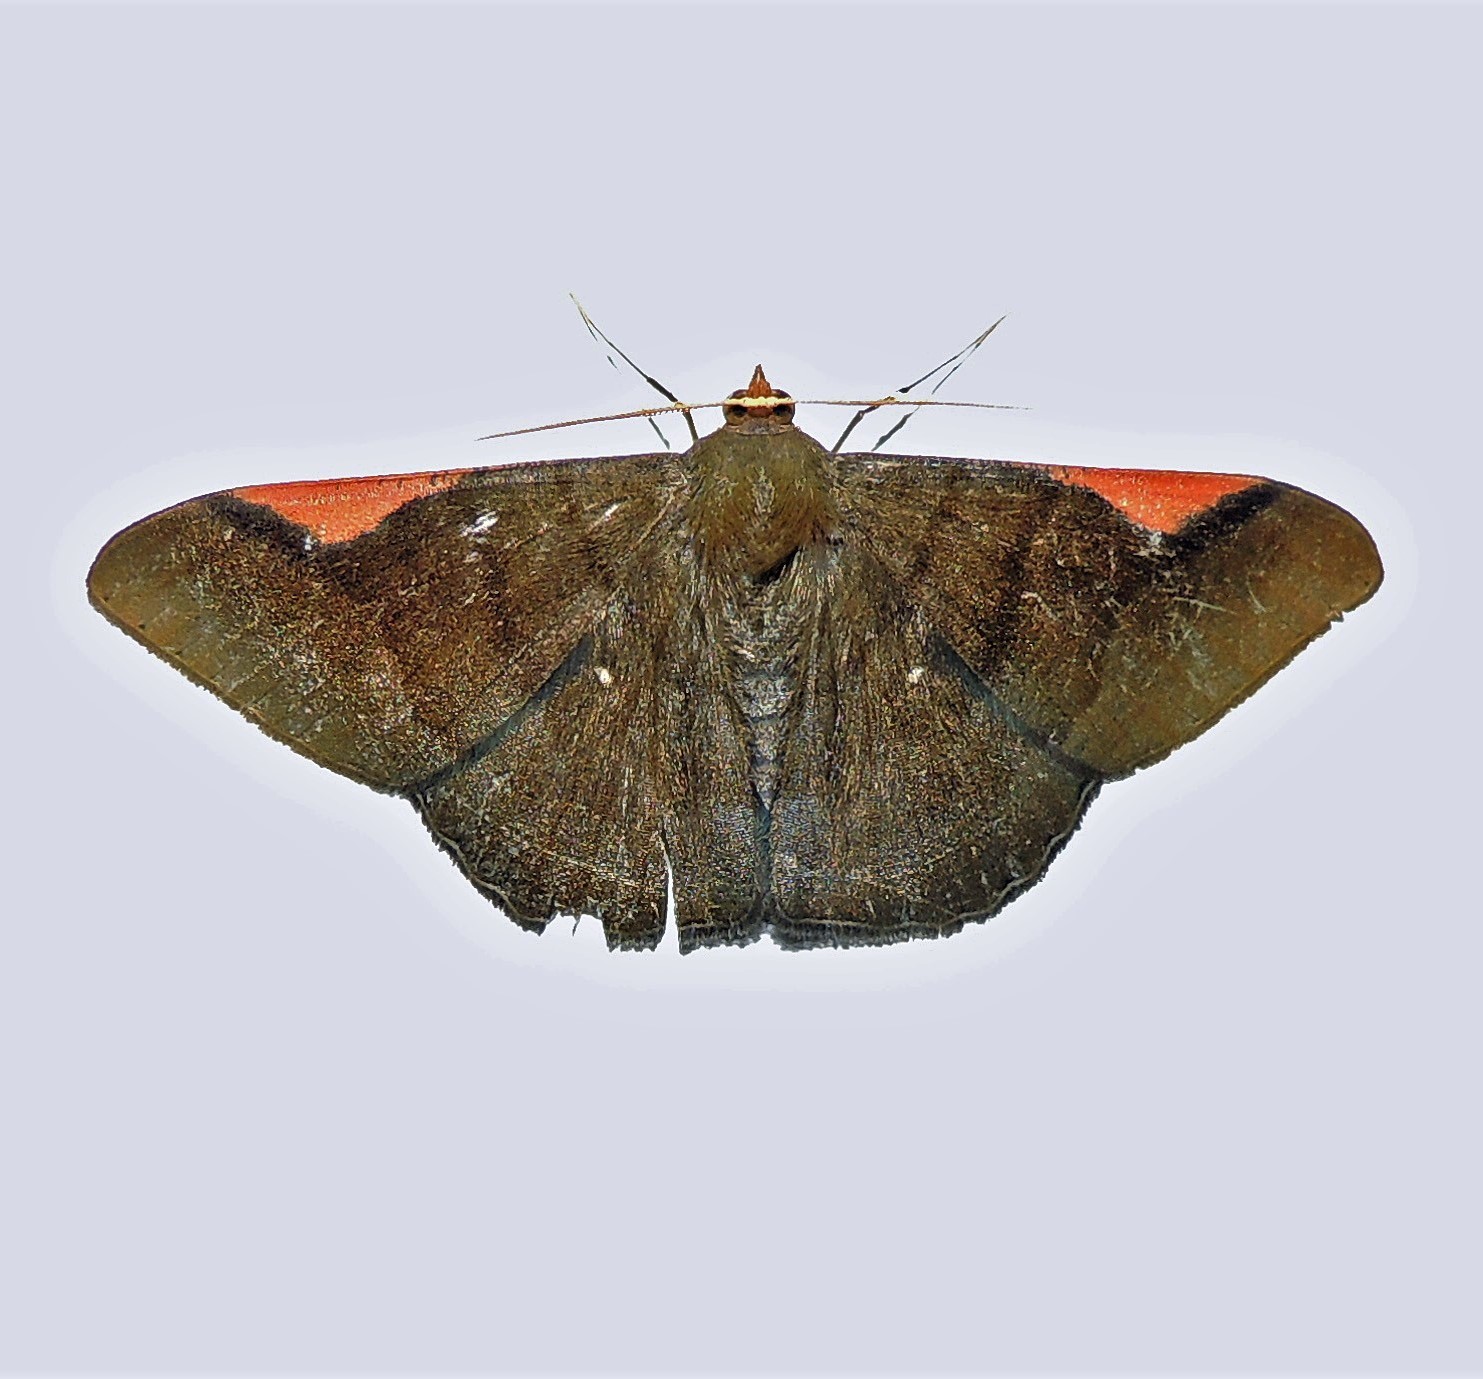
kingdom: Animalia
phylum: Arthropoda
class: Insecta
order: Lepidoptera
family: Geometridae
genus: Sphacelodes
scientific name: Sphacelodes vulneraria
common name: Looper moth
